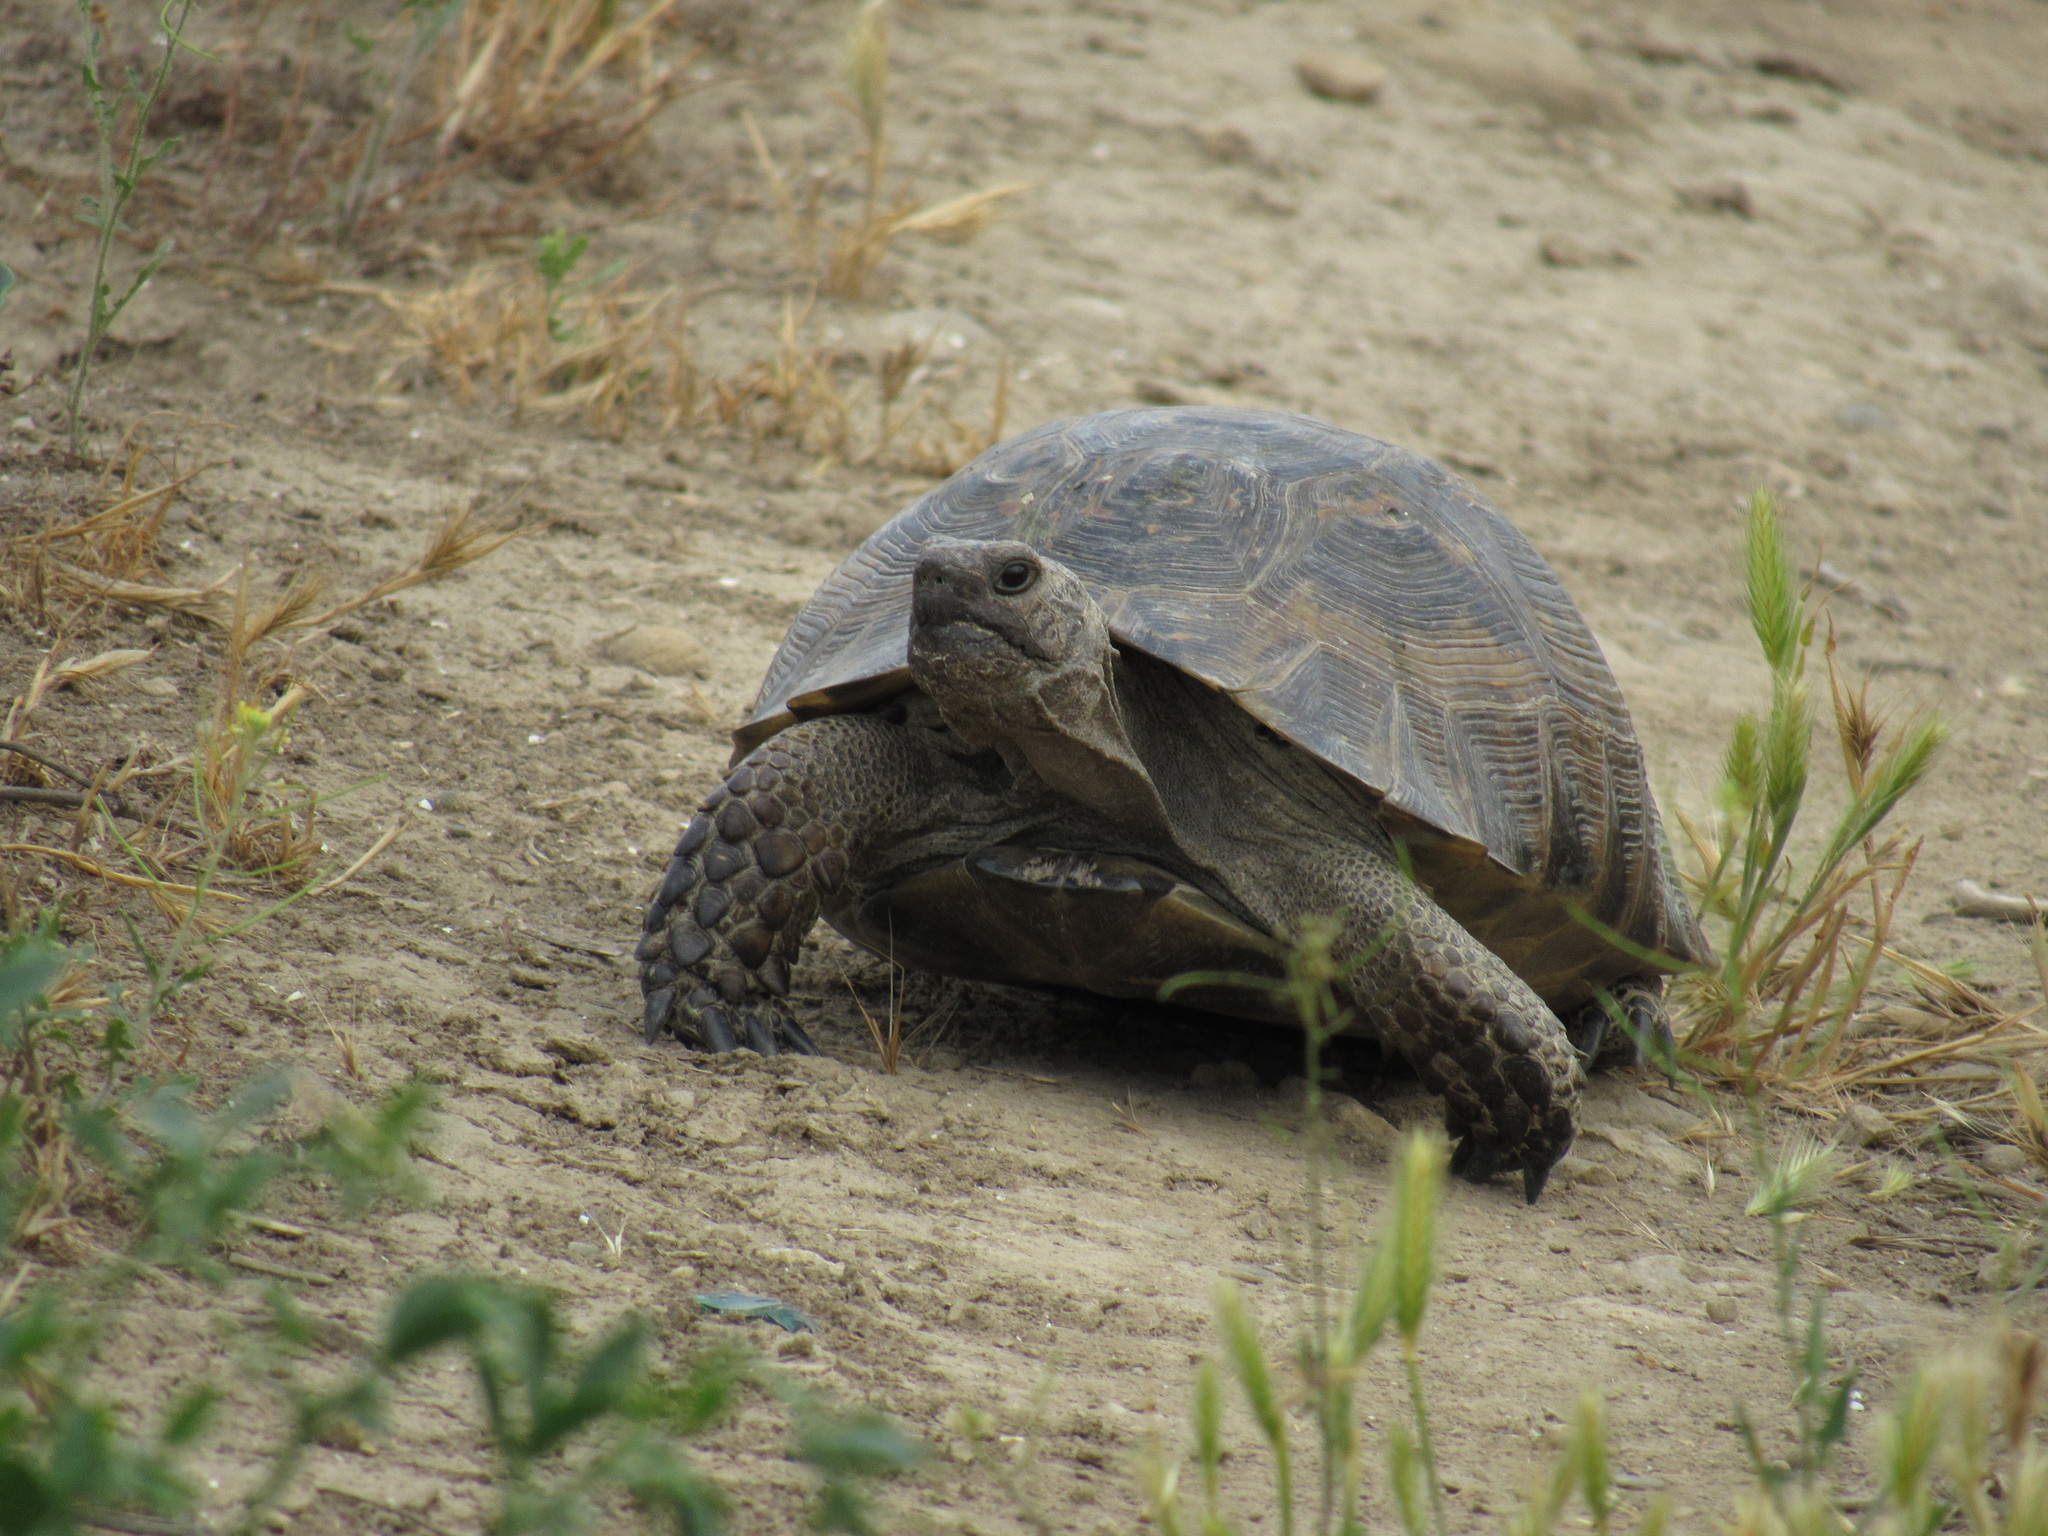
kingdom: Animalia
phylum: Chordata
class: Testudines
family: Testudinidae
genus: Testudo
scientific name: Testudo graeca
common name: Common tortoise
